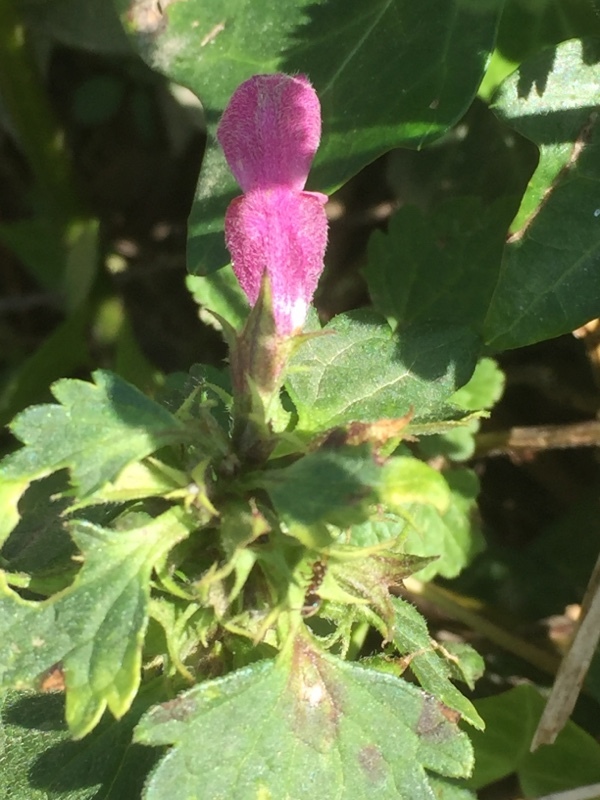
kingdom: Plantae
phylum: Tracheophyta
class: Magnoliopsida
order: Lamiales
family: Lamiaceae
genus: Lamium
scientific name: Lamium maculatum
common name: Spotted dead-nettle
